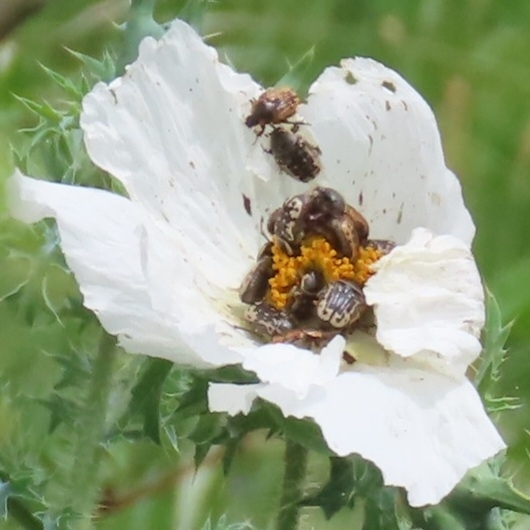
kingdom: Animalia
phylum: Arthropoda
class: Insecta
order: Coleoptera
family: Scarabaeidae
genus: Euphoria
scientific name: Euphoria kernii
